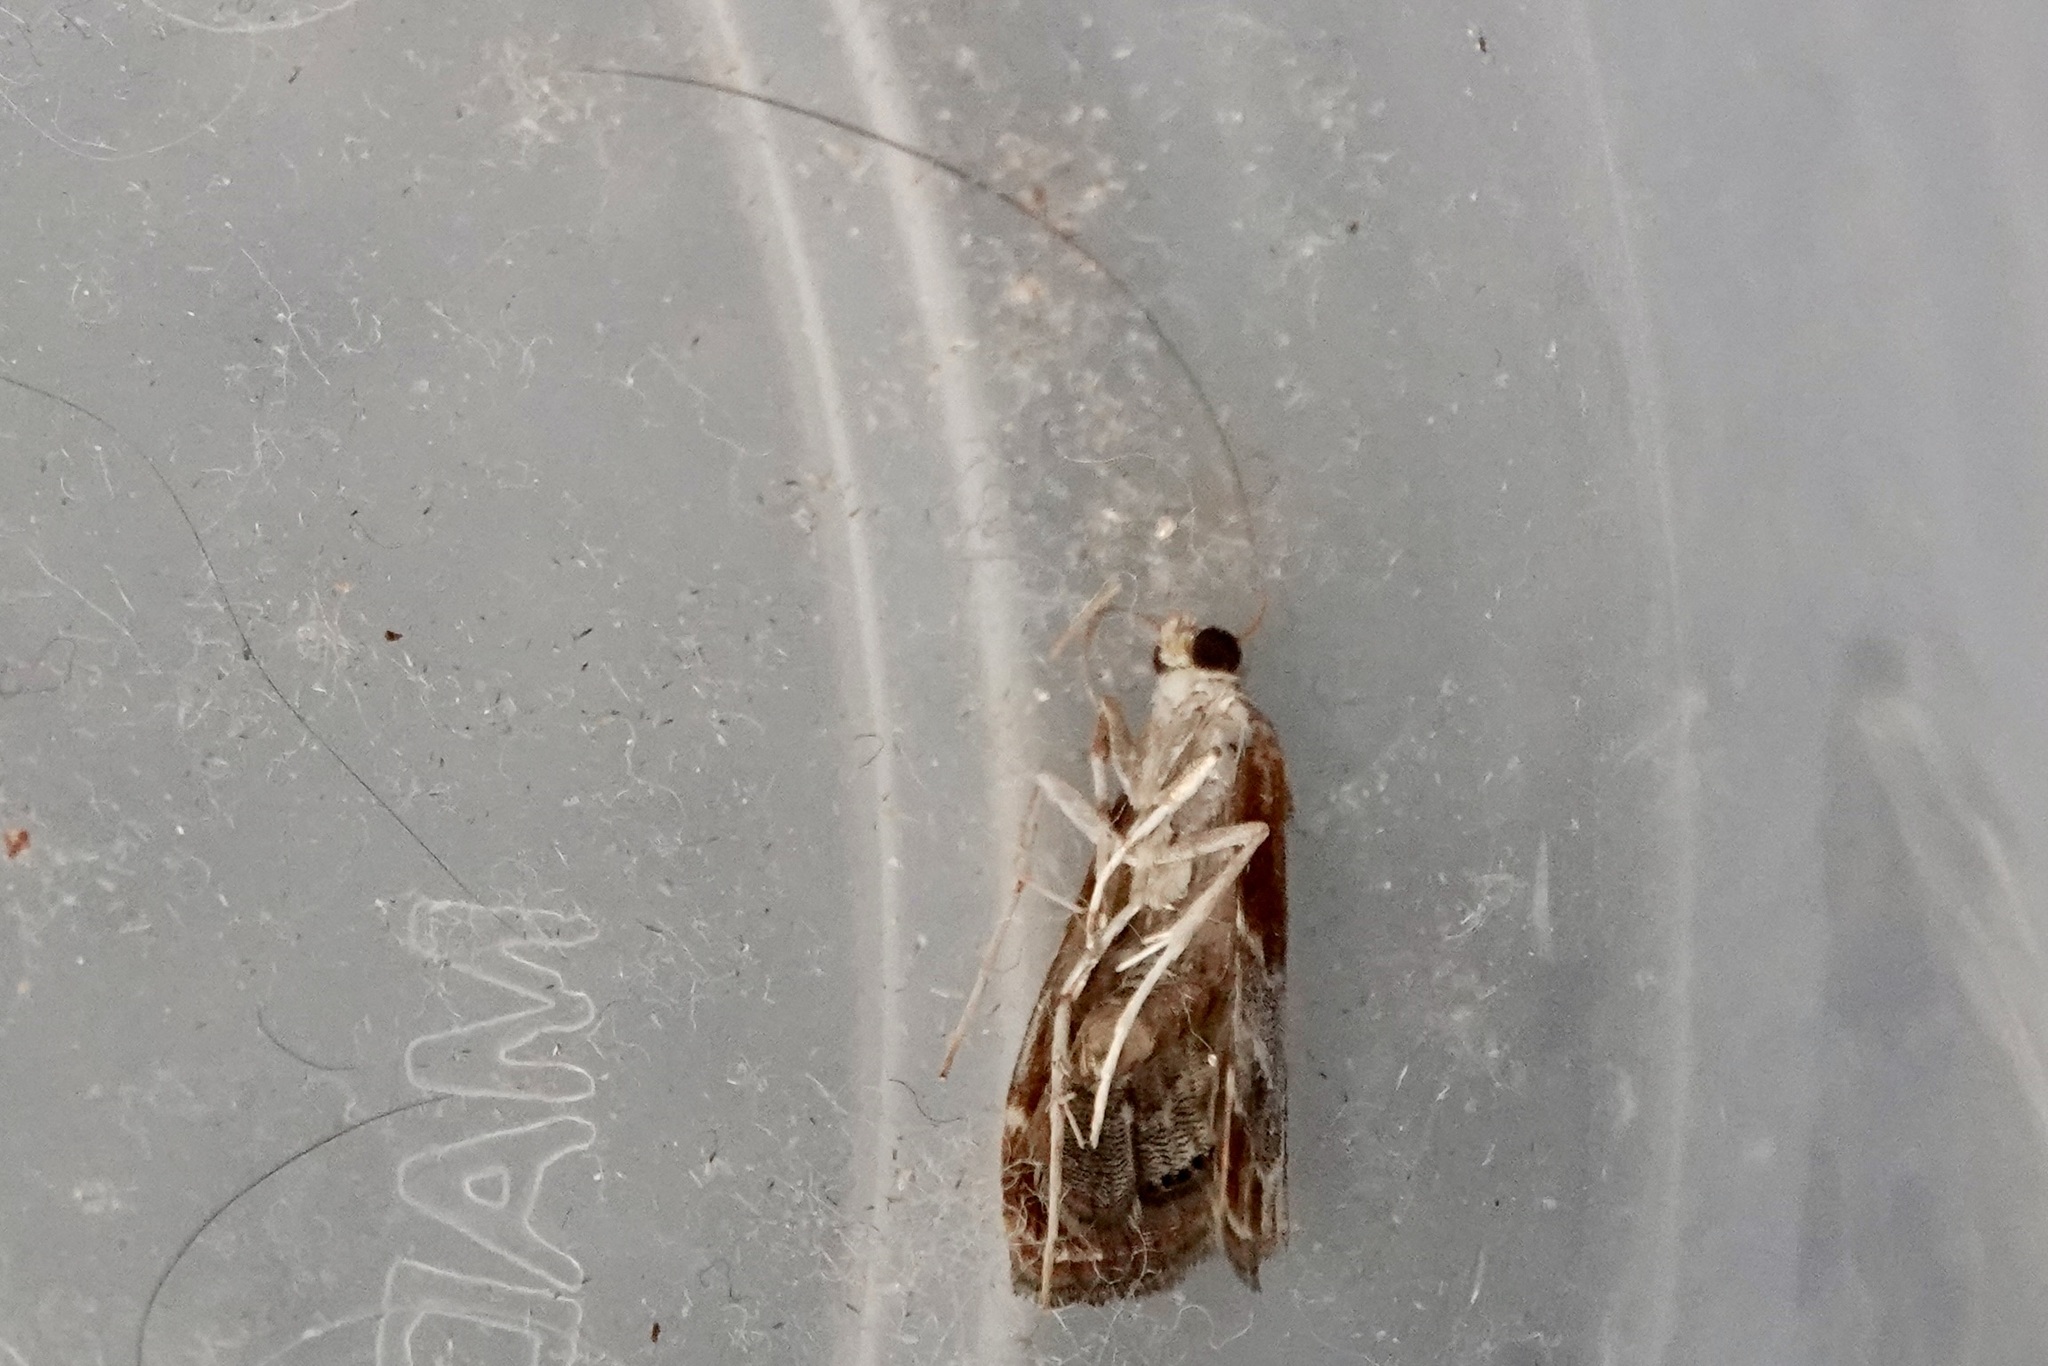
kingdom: Animalia
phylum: Arthropoda
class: Insecta
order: Lepidoptera
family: Crambidae
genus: Chalcoela
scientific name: Chalcoela pegasalis
